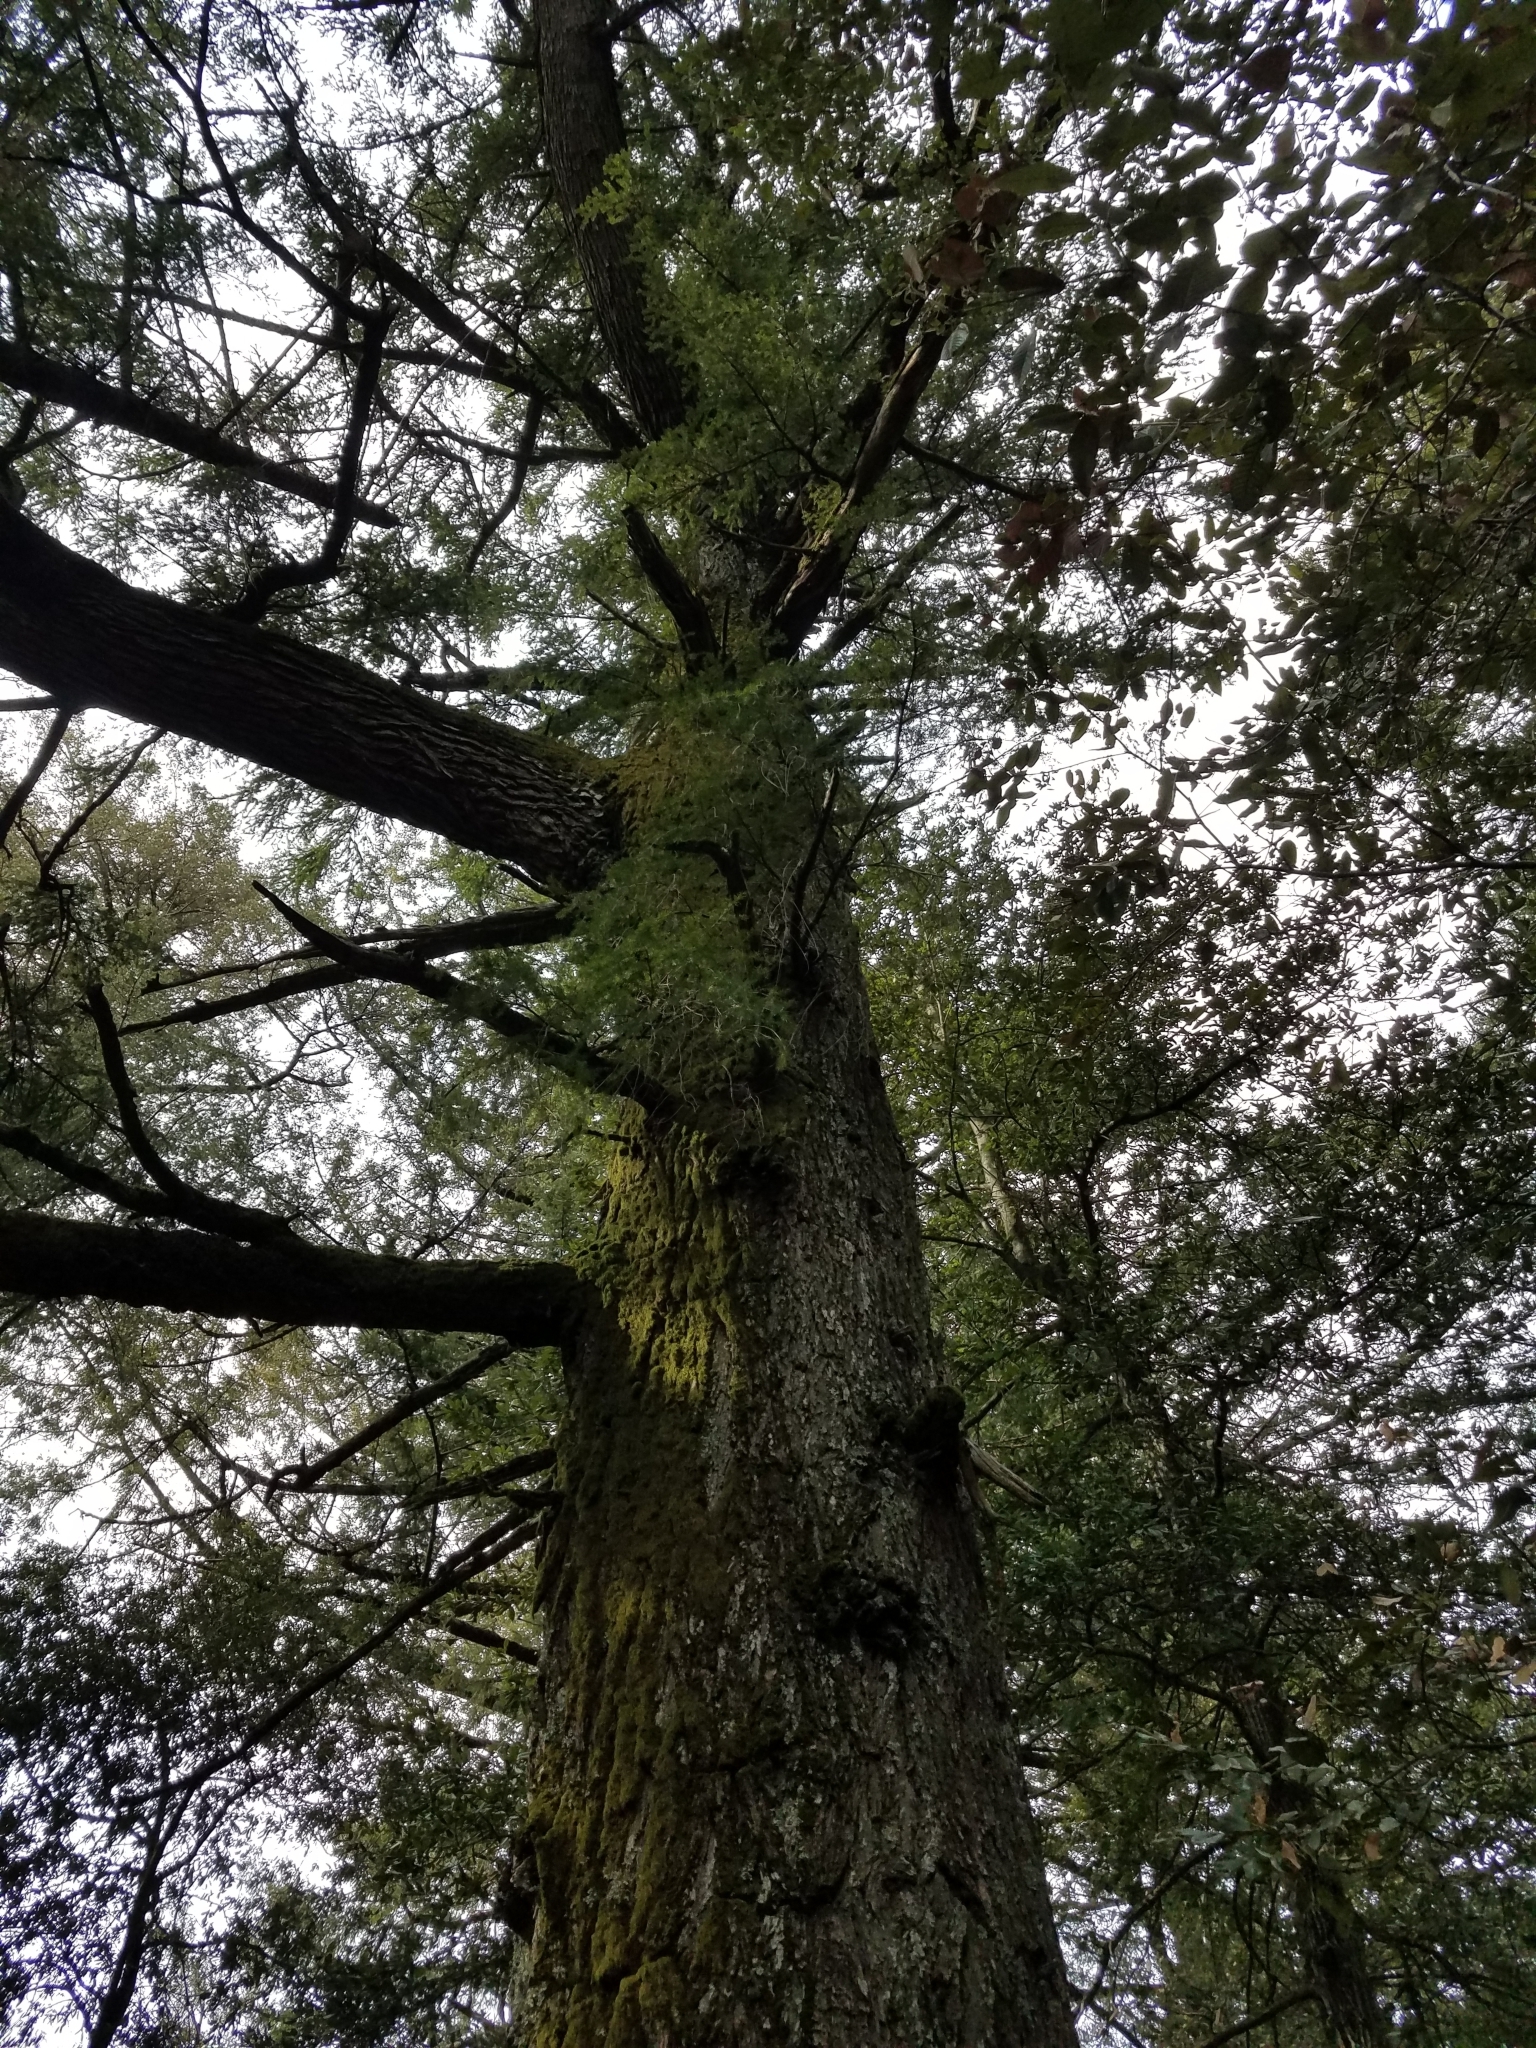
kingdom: Plantae
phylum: Tracheophyta
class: Pinopsida
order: Pinales
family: Pinaceae
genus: Pseudotsuga
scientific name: Pseudotsuga menziesii
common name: Douglas fir
